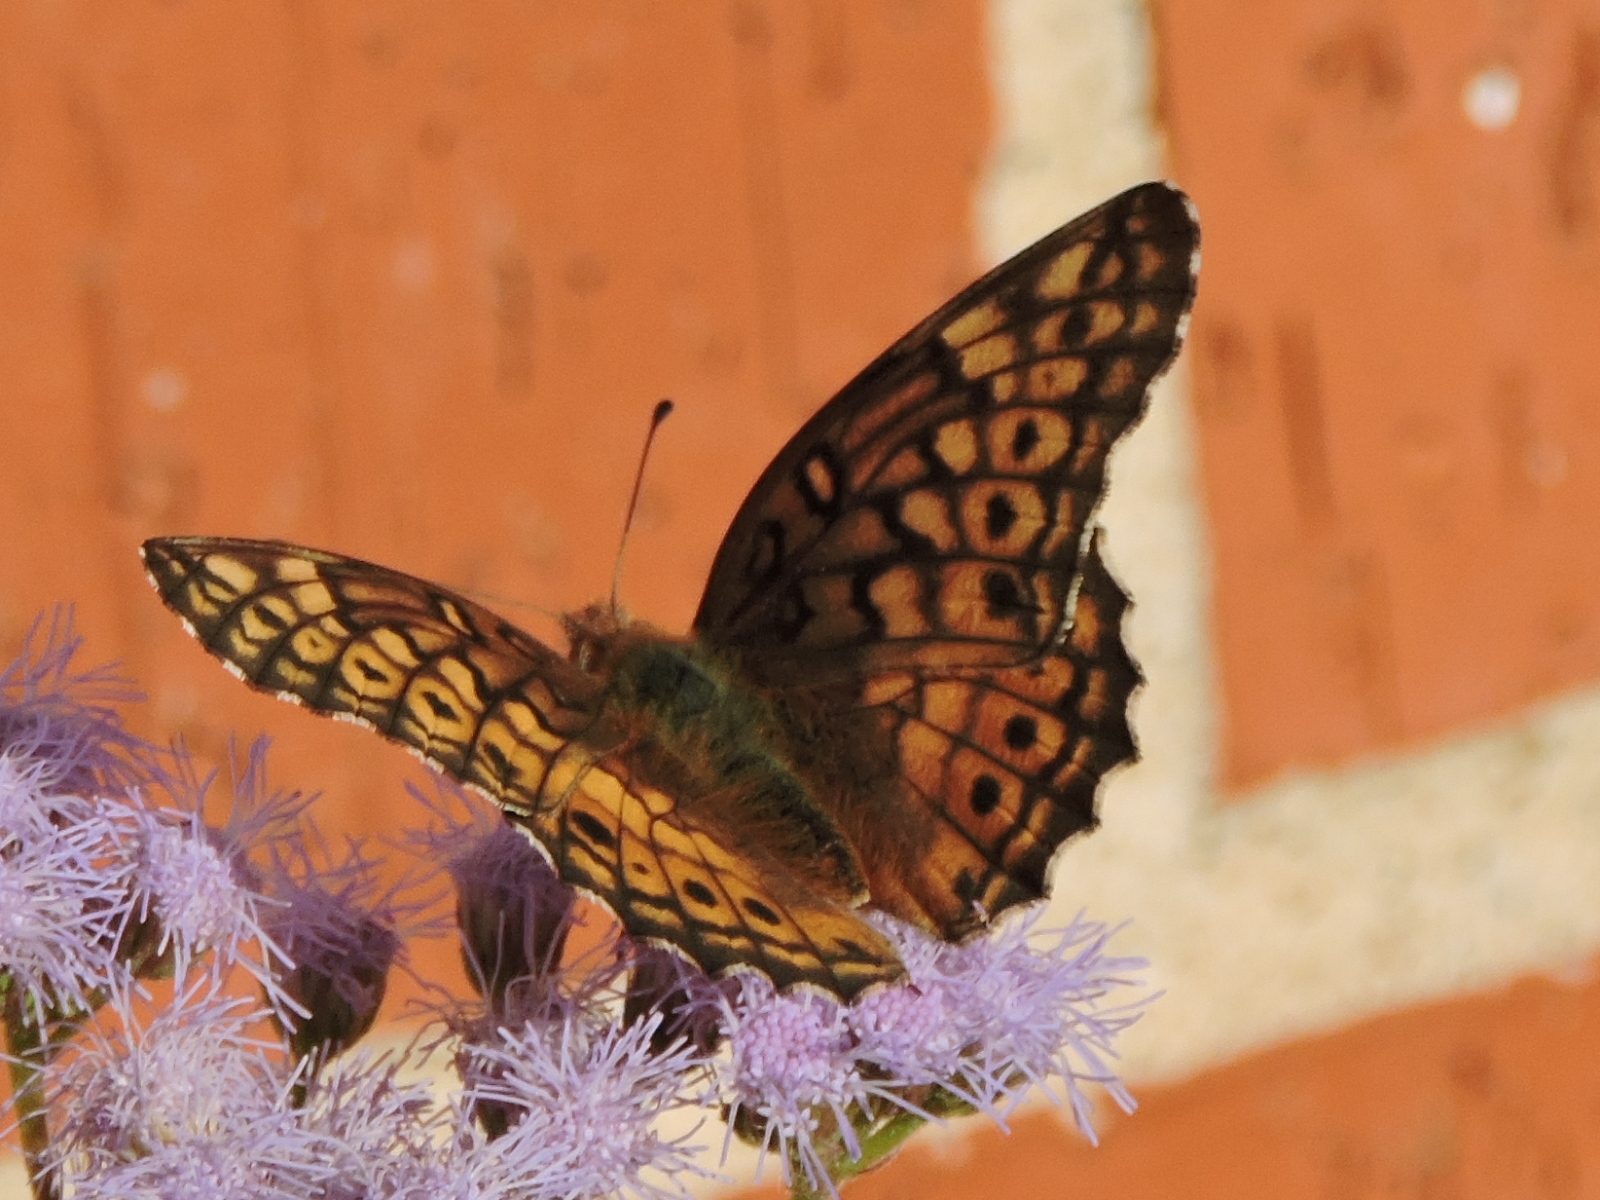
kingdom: Animalia
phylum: Arthropoda
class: Insecta
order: Lepidoptera
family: Nymphalidae
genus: Euptoieta
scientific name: Euptoieta claudia
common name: Variegated fritillary
